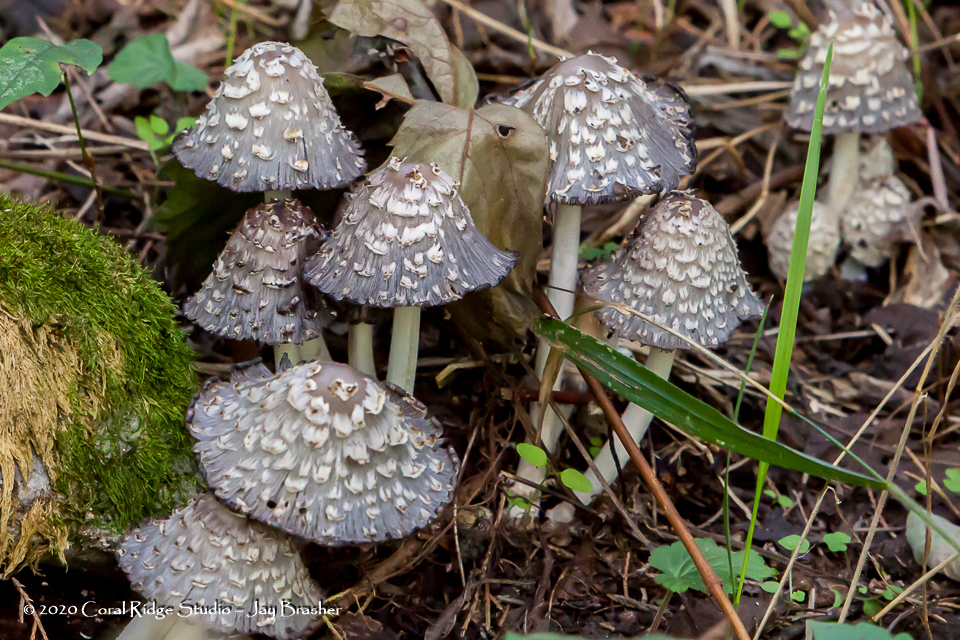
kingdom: Fungi
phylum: Basidiomycota
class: Agaricomycetes
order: Agaricales
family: Psathyrellaceae
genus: Coprinopsis
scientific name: Coprinopsis variegata
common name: Scaly ink cap
